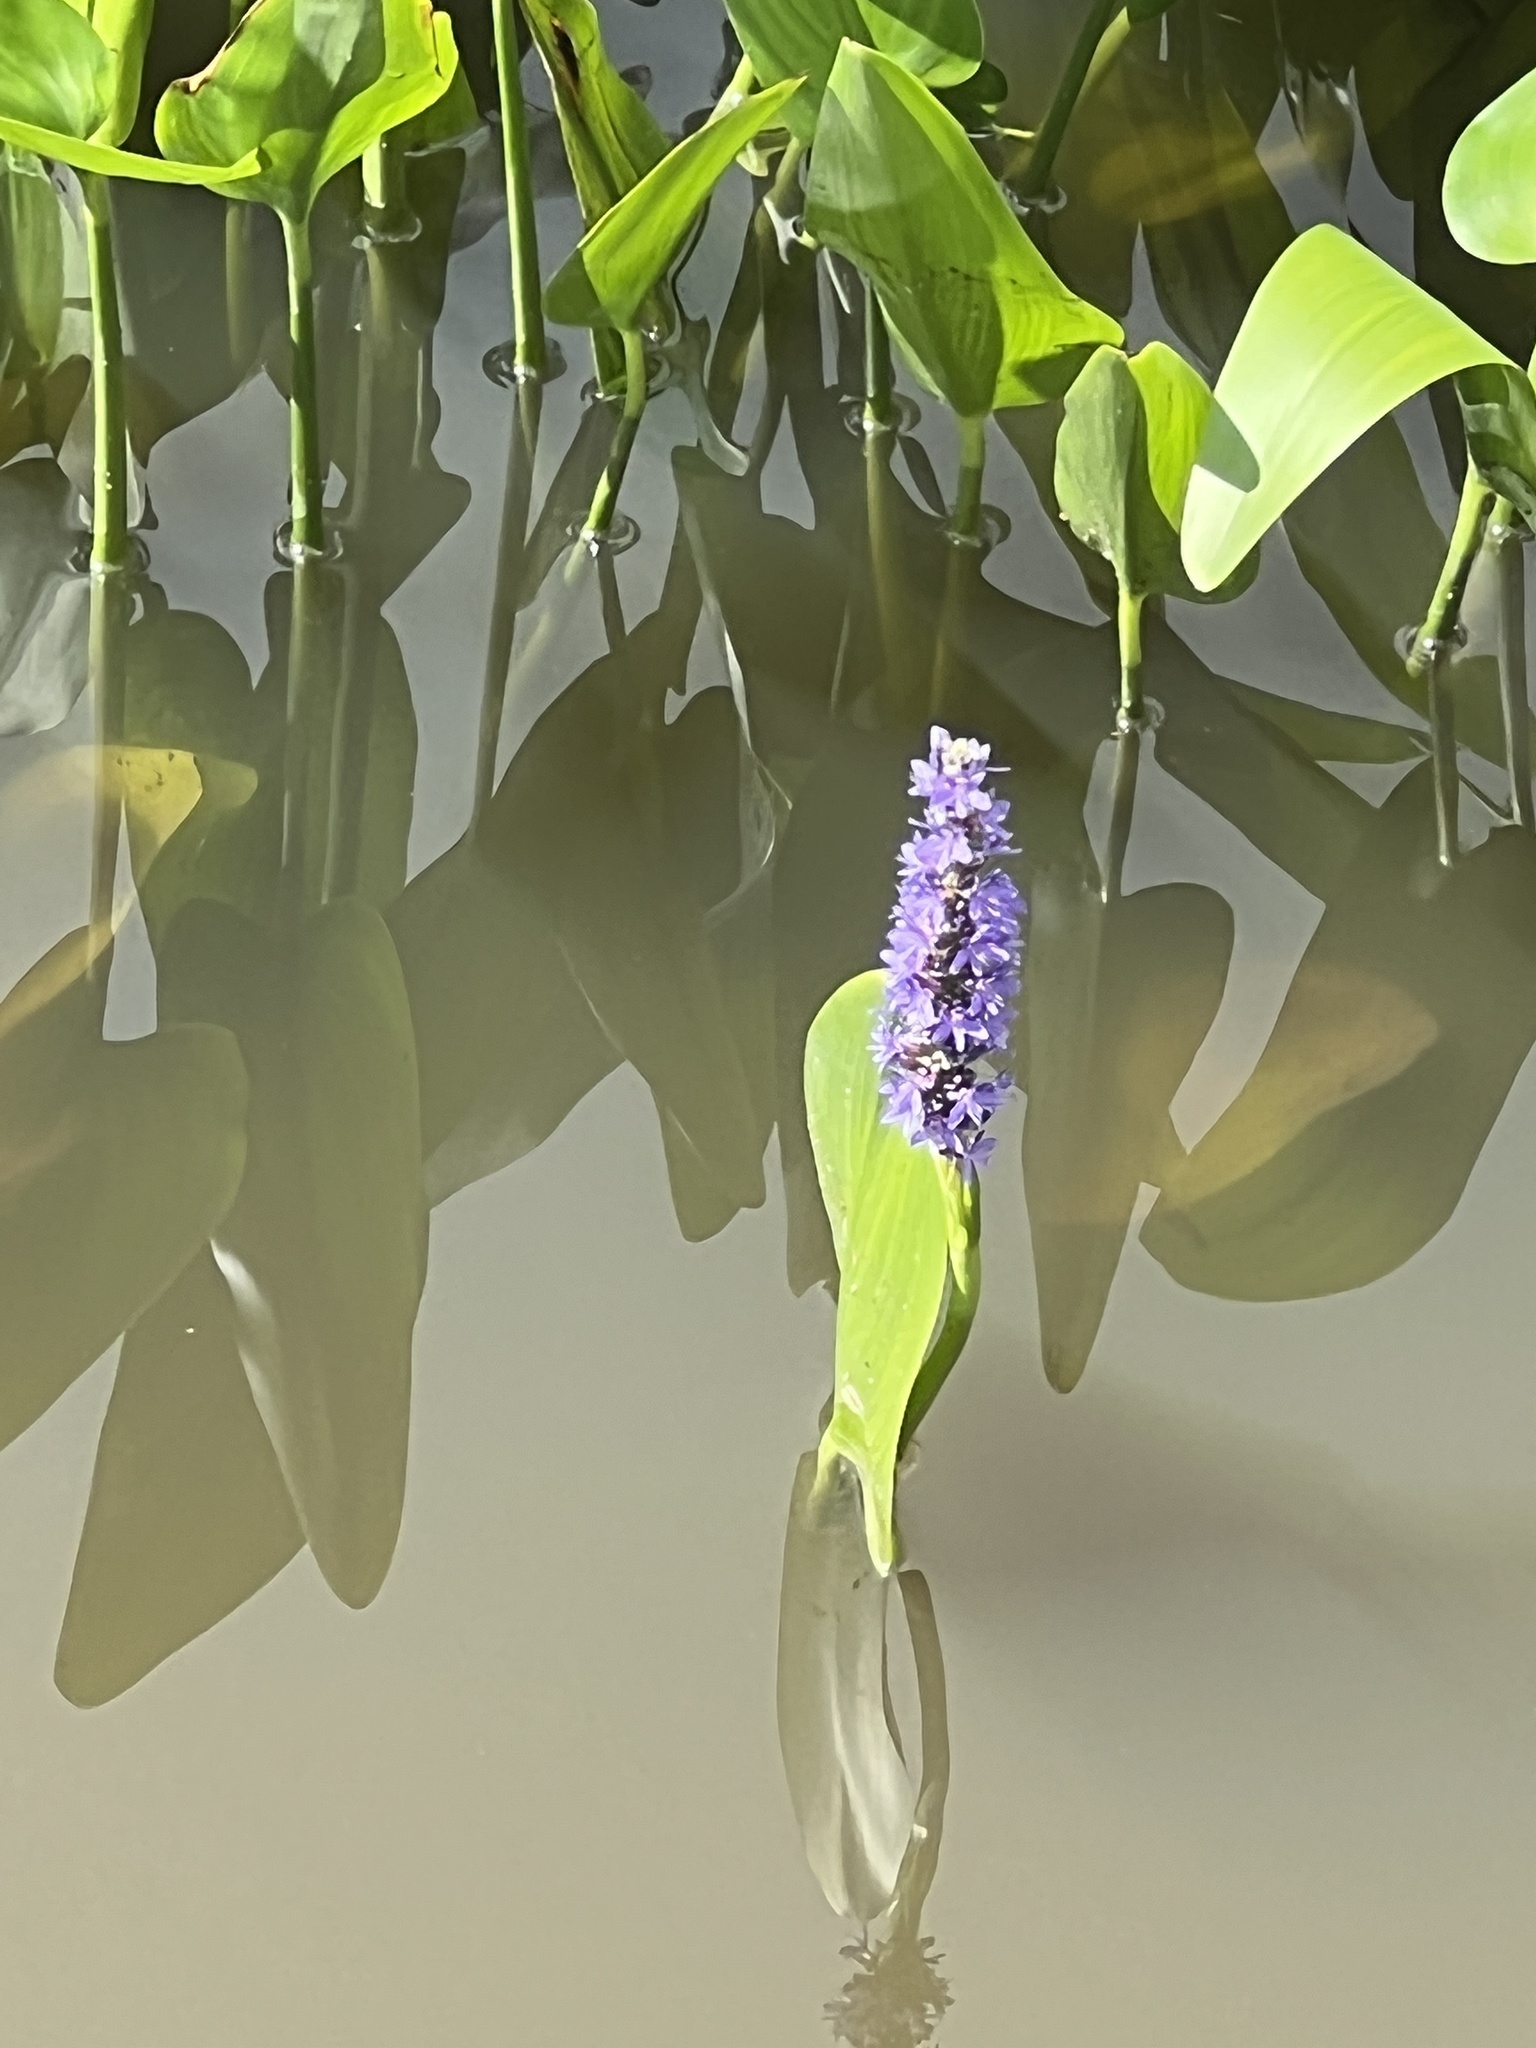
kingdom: Plantae
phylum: Tracheophyta
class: Liliopsida
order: Commelinales
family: Pontederiaceae
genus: Pontederia
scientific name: Pontederia cordata
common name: Pickerelweed
